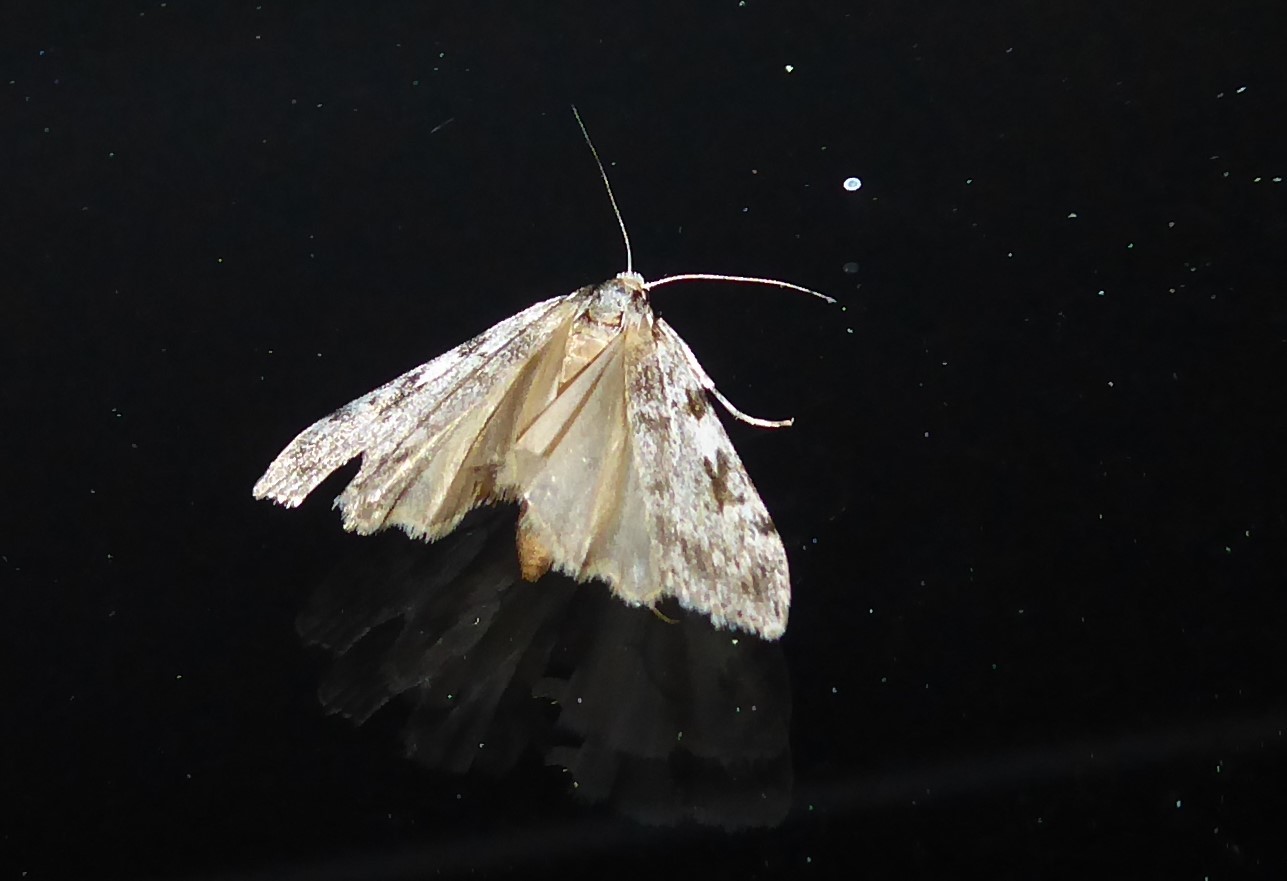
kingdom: Animalia
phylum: Arthropoda
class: Insecta
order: Lepidoptera
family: Crambidae
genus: Scoparia
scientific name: Scoparia halopis
